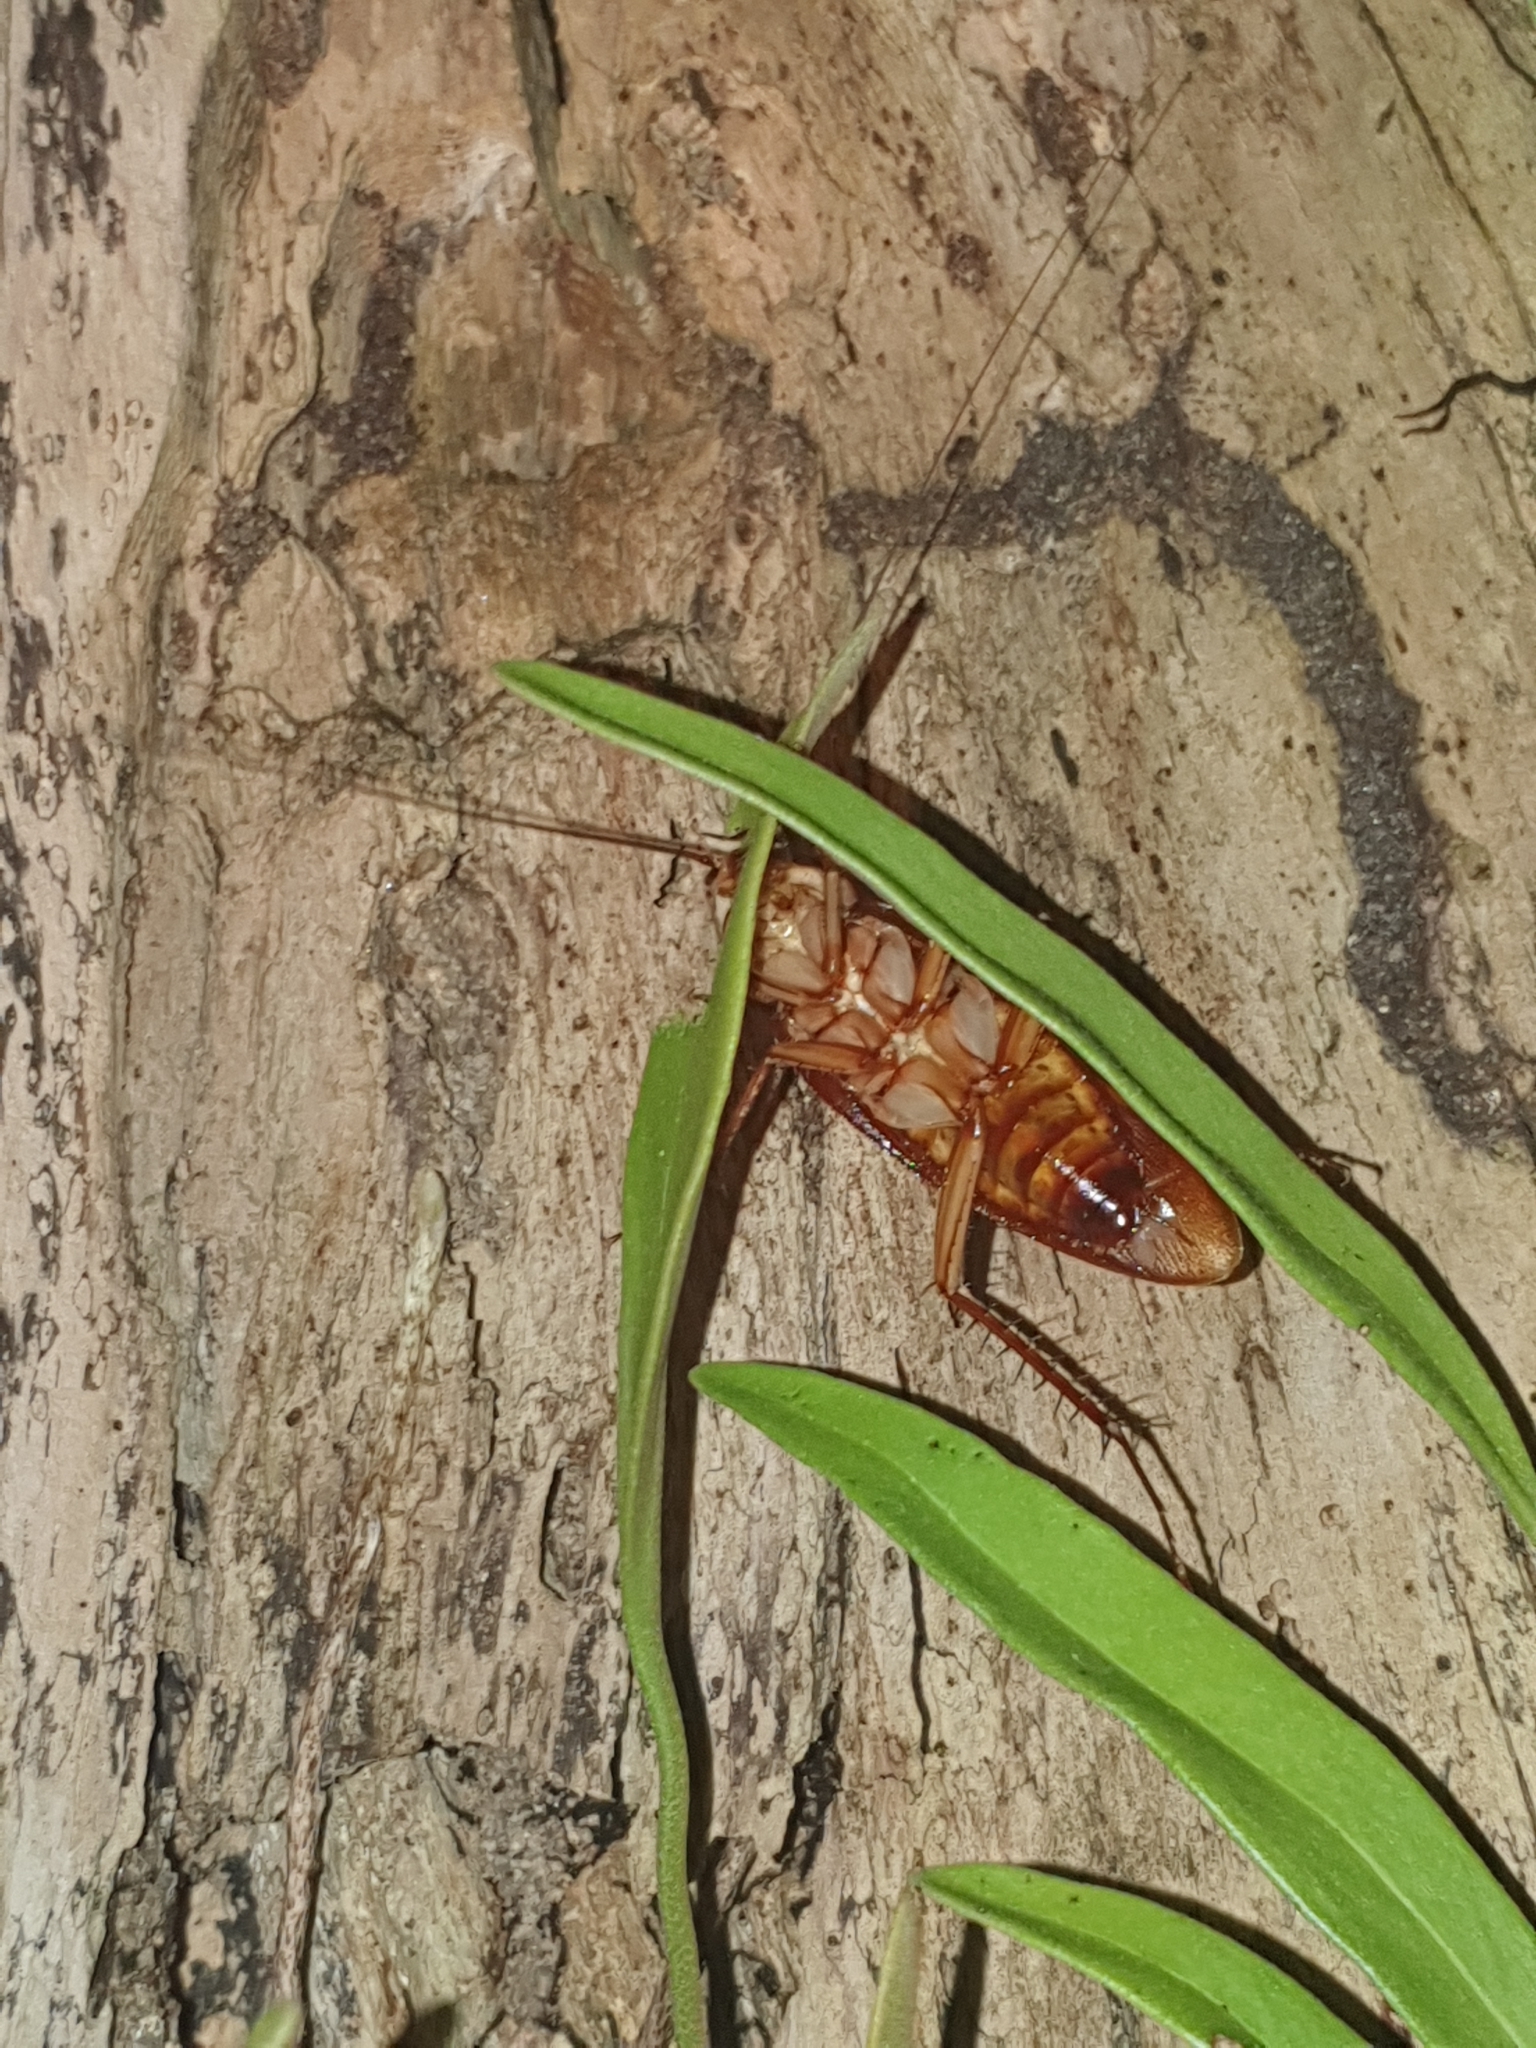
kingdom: Animalia
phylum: Arthropoda
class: Insecta
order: Blattodea
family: Blattidae
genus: Periplaneta
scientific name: Periplaneta americana
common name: American cockroach
